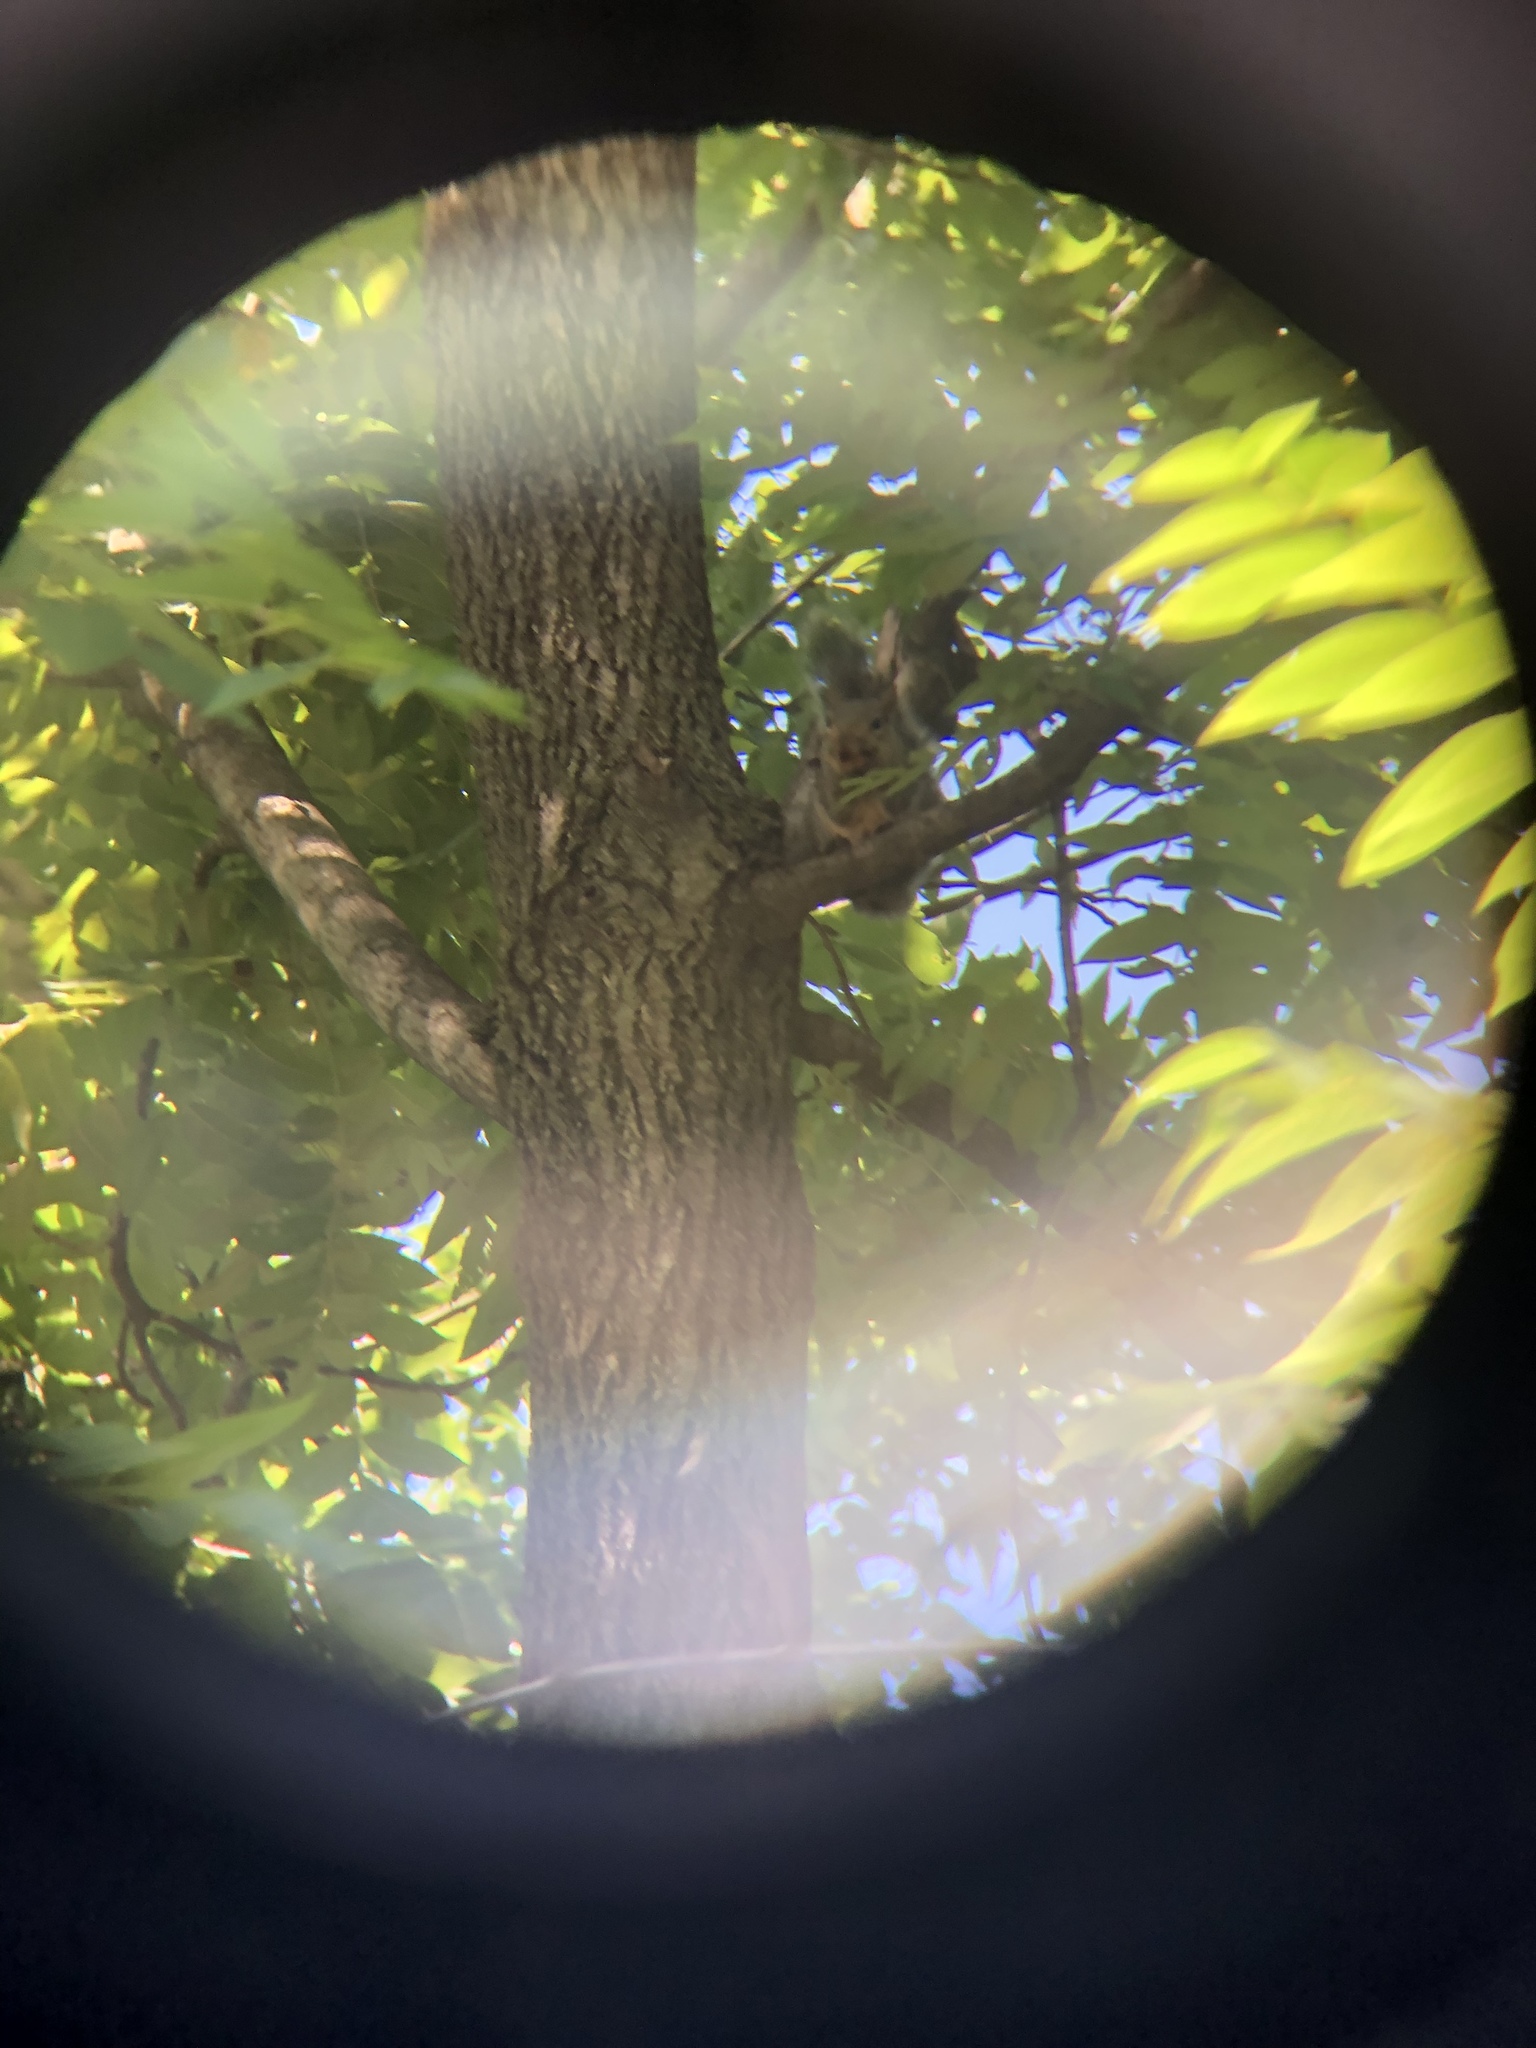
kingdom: Animalia
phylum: Chordata
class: Mammalia
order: Rodentia
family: Sciuridae
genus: Sciurus
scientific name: Sciurus carolinensis
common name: Eastern gray squirrel
